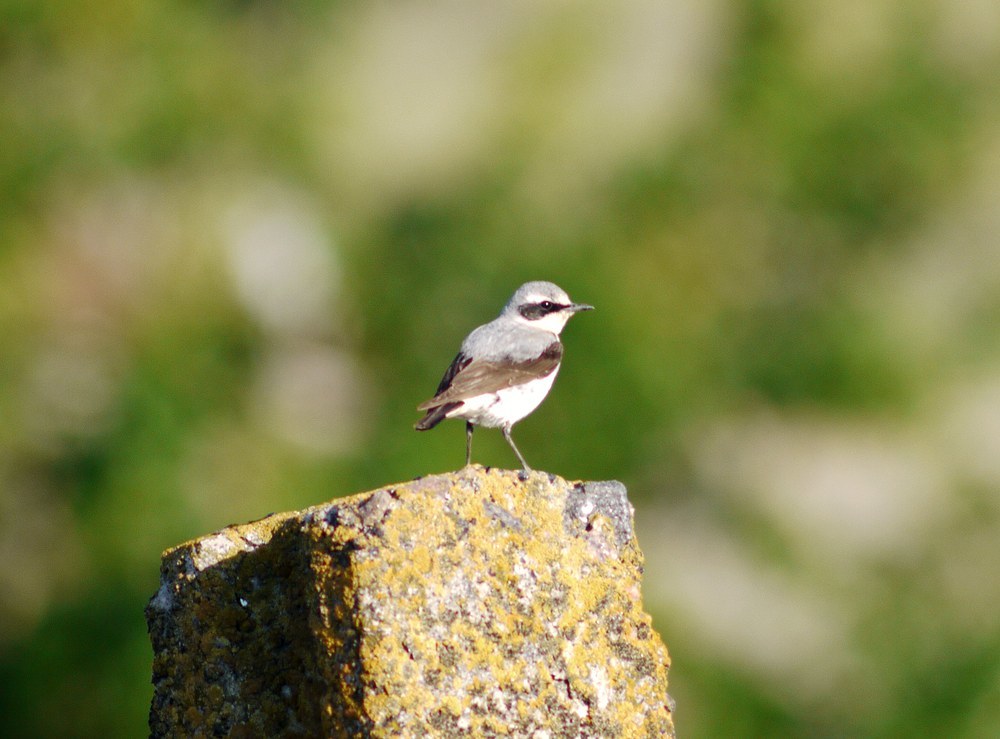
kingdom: Animalia
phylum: Chordata
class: Aves
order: Passeriformes
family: Muscicapidae
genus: Oenanthe
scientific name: Oenanthe oenanthe
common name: Northern wheatear
